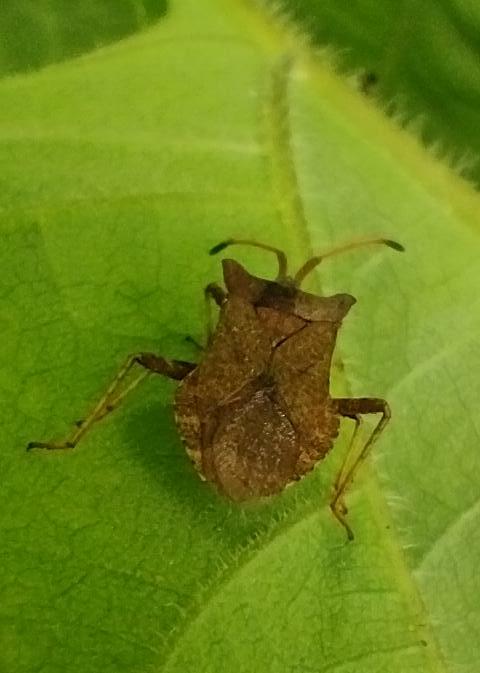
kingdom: Animalia
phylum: Arthropoda
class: Insecta
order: Hemiptera
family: Coreidae
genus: Coreus
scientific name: Coreus marginatus
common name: Dock bug
